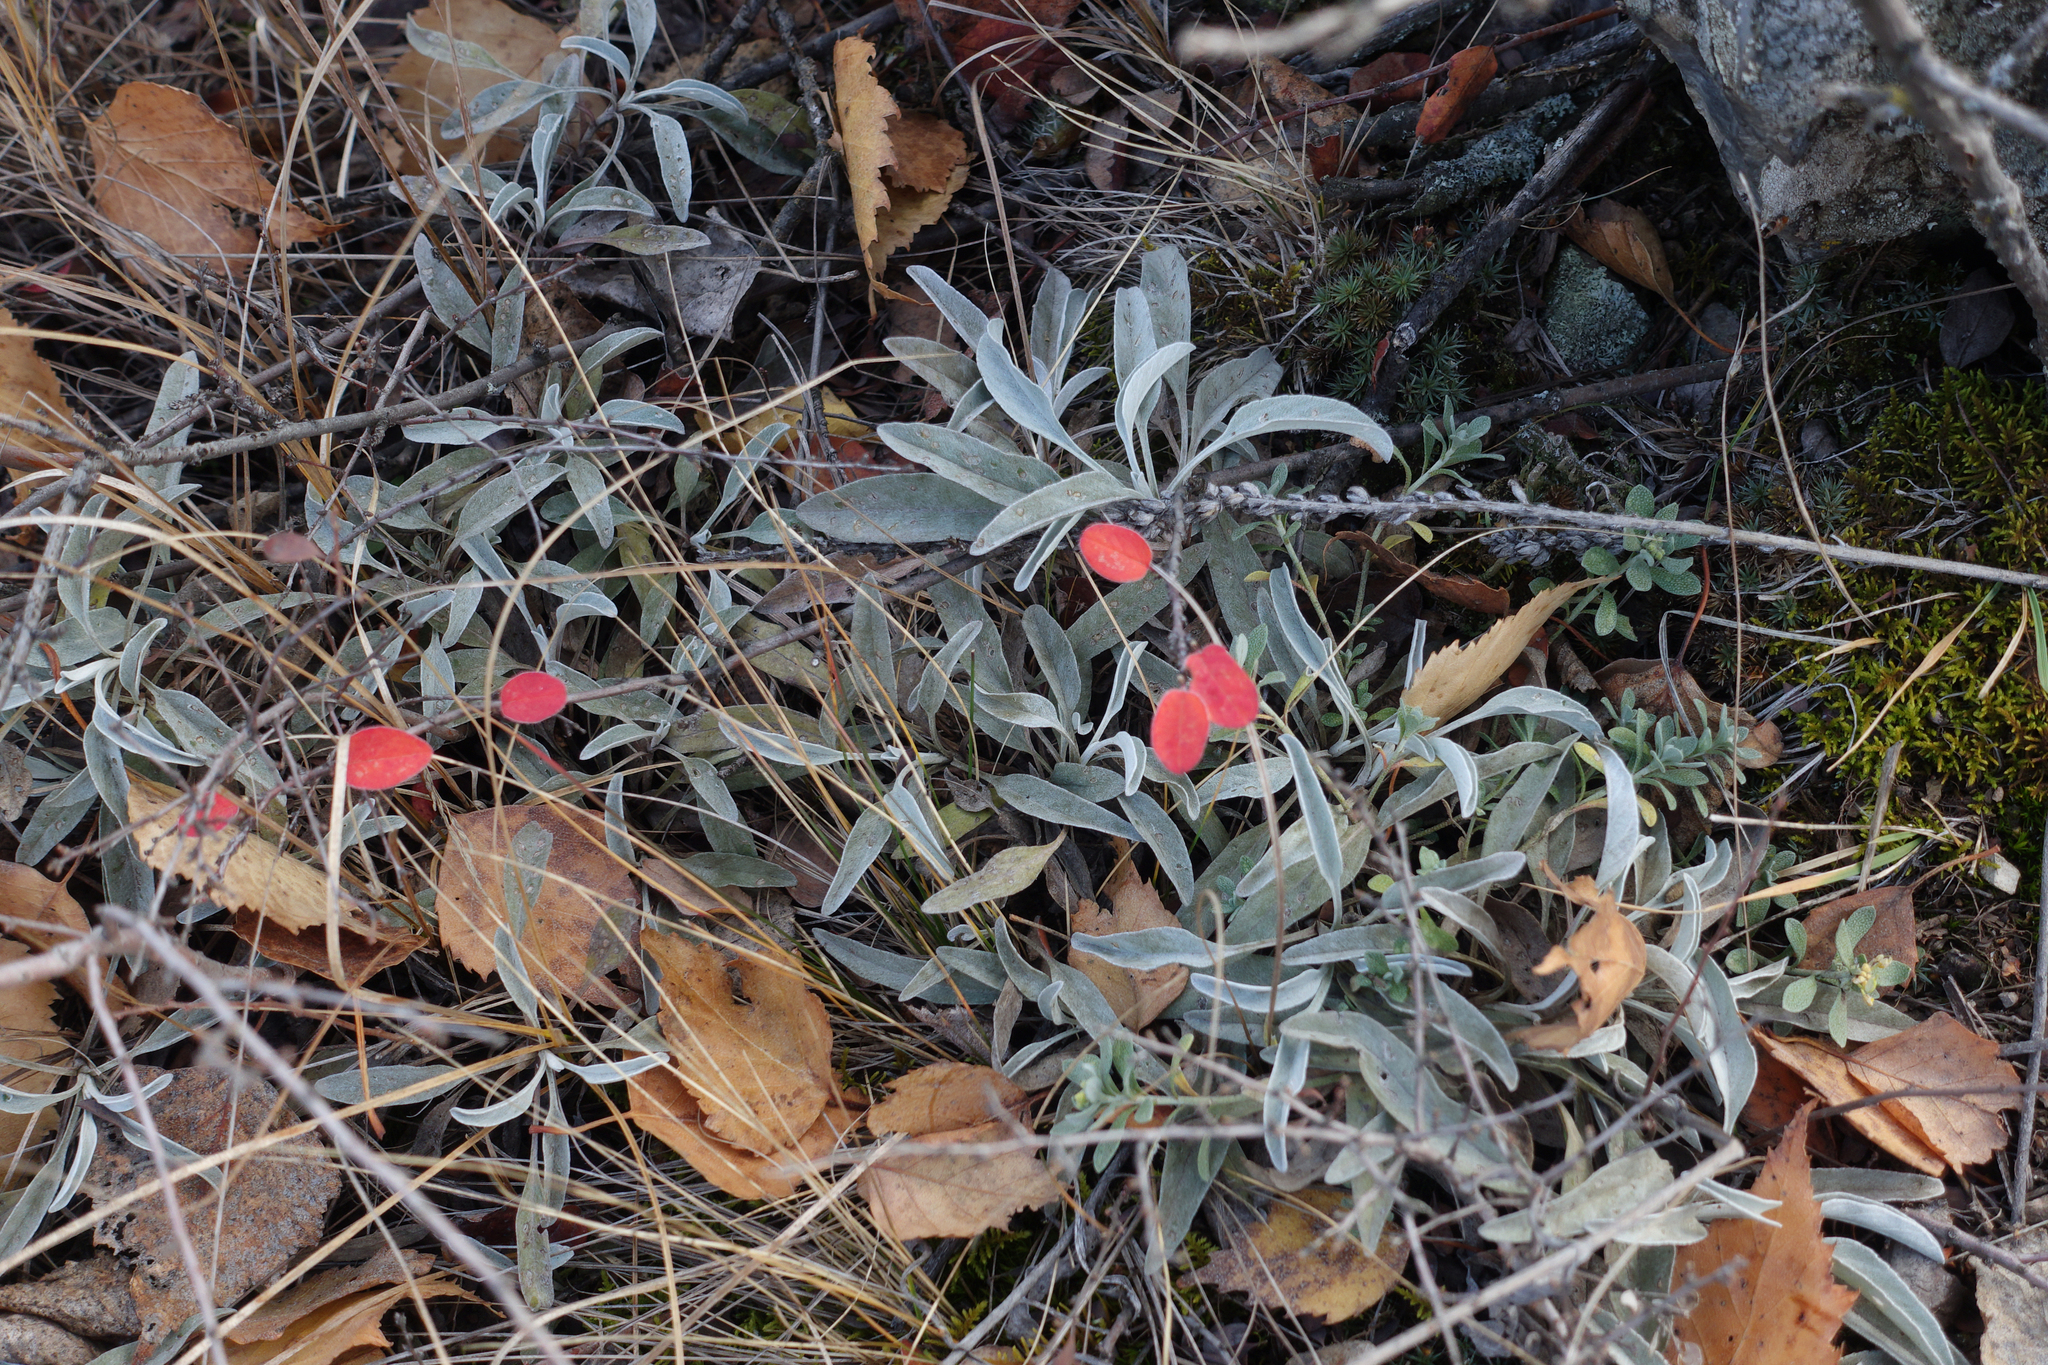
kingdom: Plantae
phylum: Tracheophyta
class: Magnoliopsida
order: Lamiales
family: Plantaginaceae
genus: Veronica
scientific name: Veronica incana
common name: Silver speedwell
